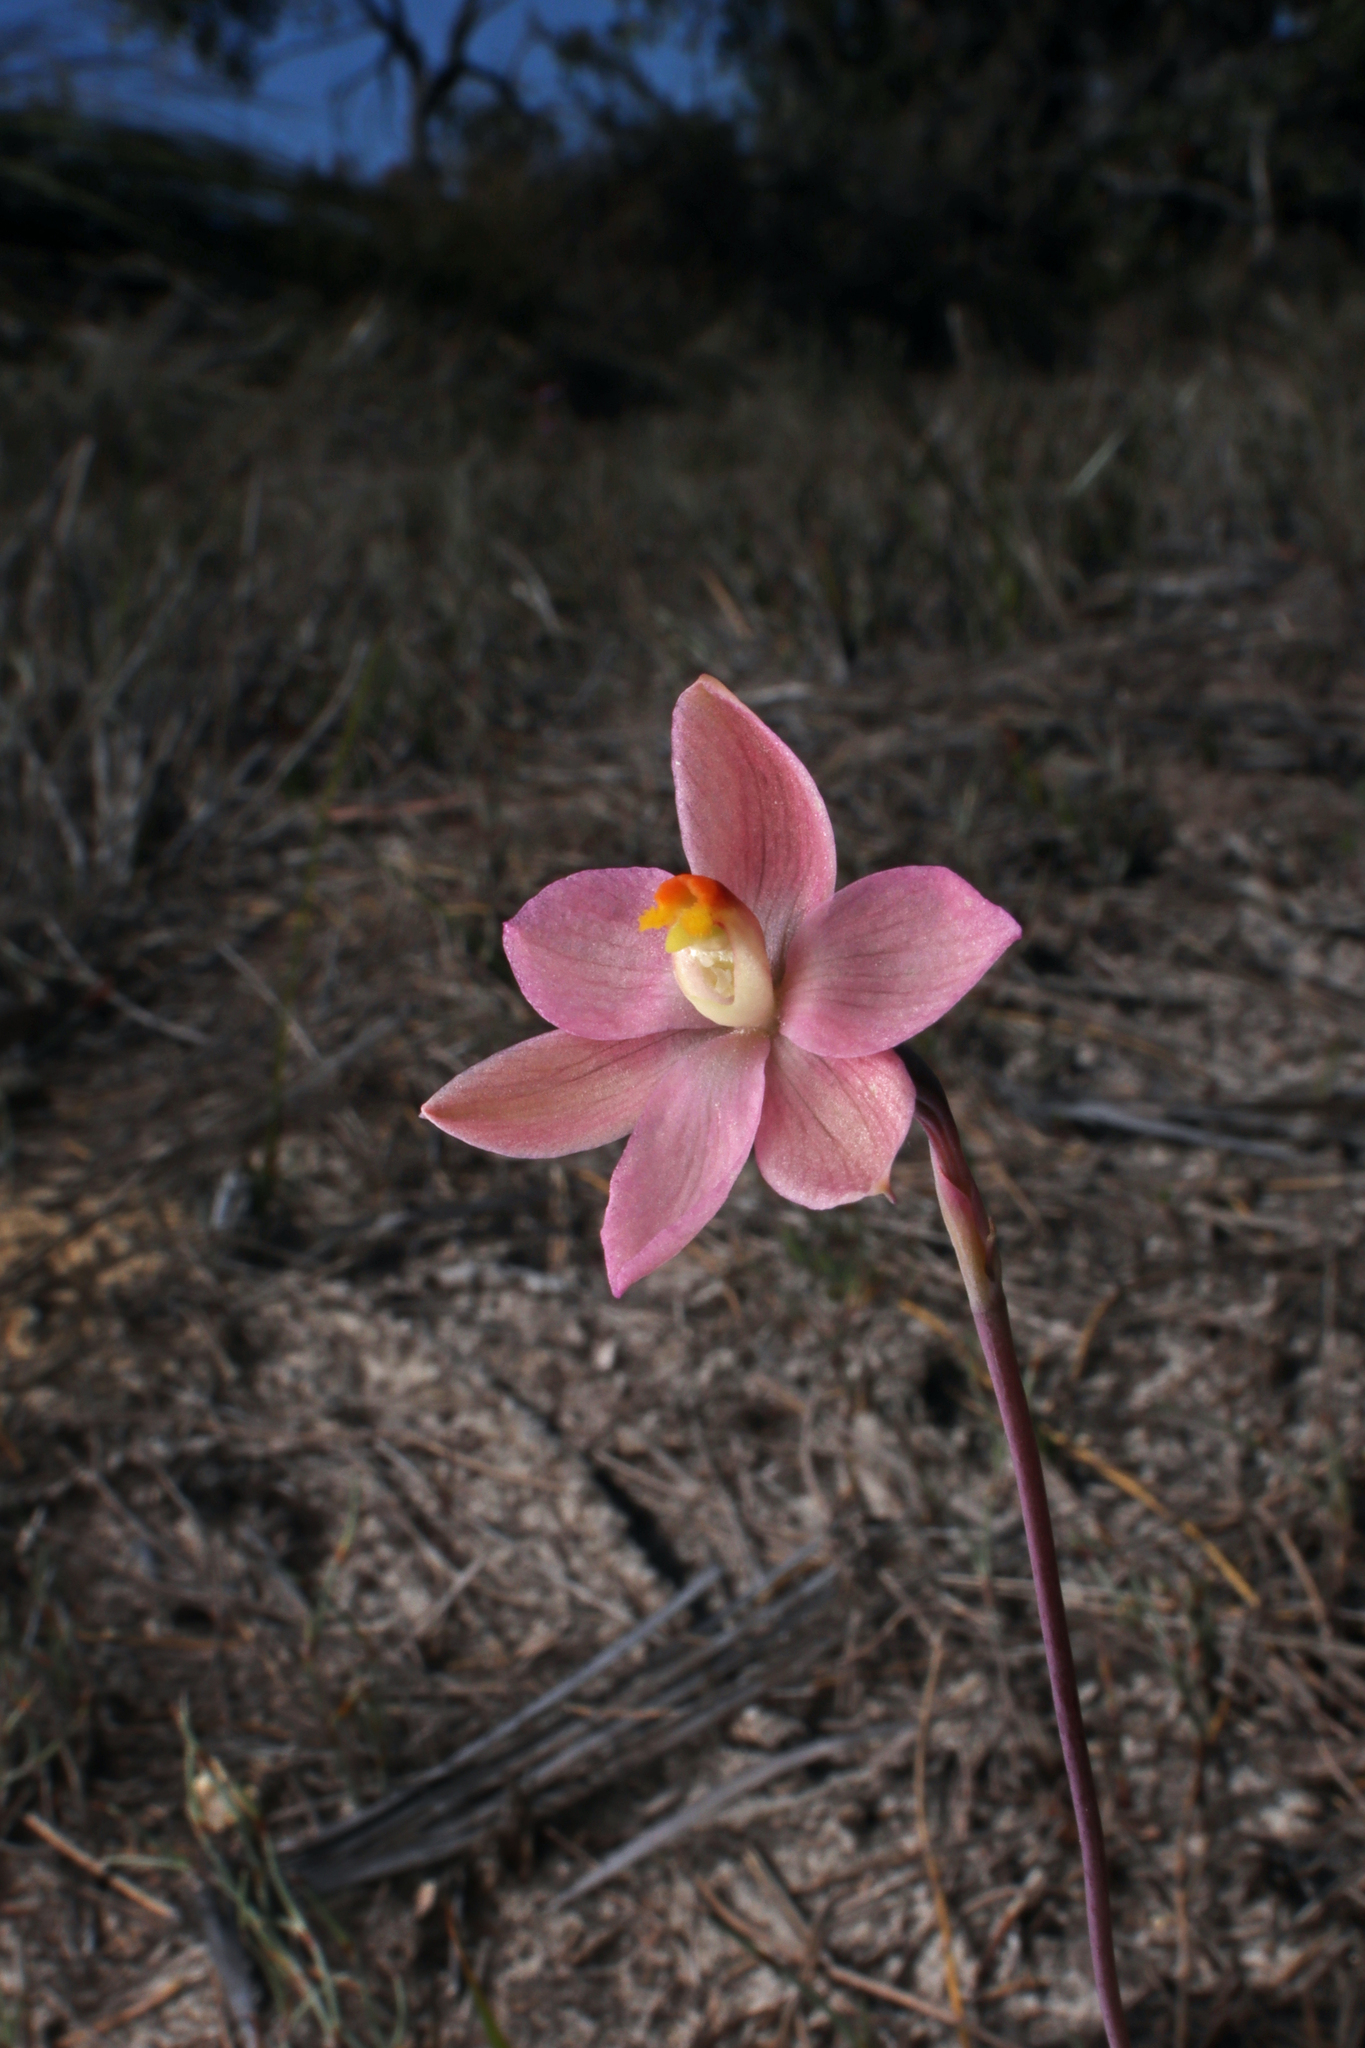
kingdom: Plantae
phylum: Tracheophyta
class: Liliopsida
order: Asparagales
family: Orchidaceae
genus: Thelymitra
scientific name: Thelymitra rubra
